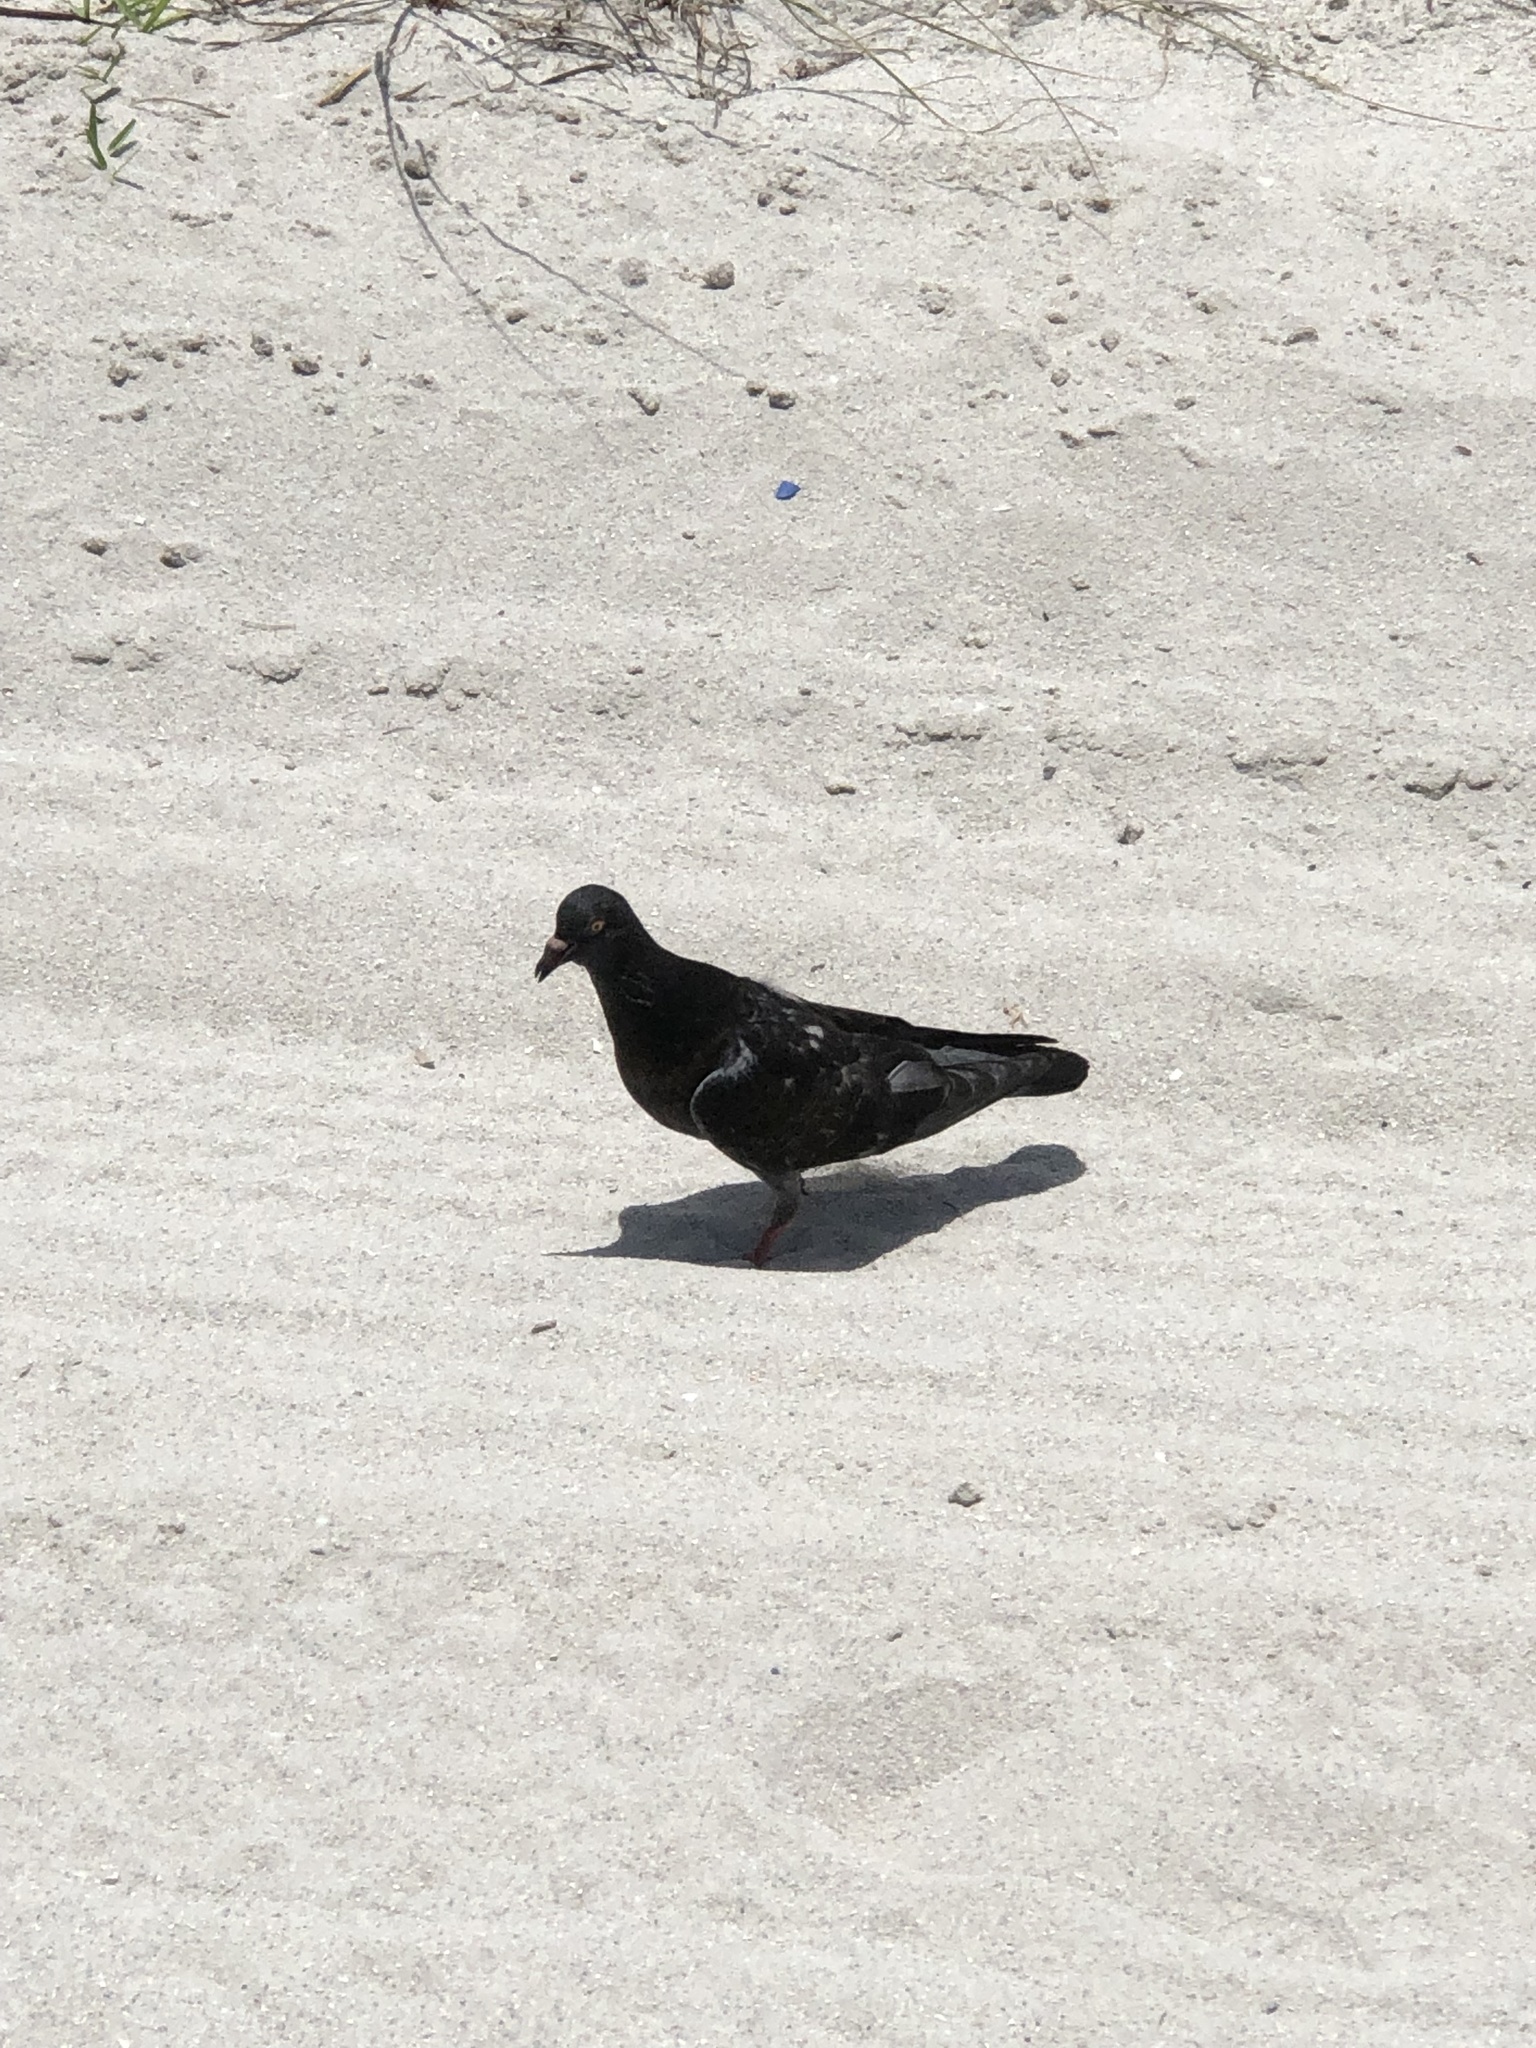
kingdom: Animalia
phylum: Chordata
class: Aves
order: Columbiformes
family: Columbidae
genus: Columba
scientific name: Columba livia
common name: Rock pigeon
